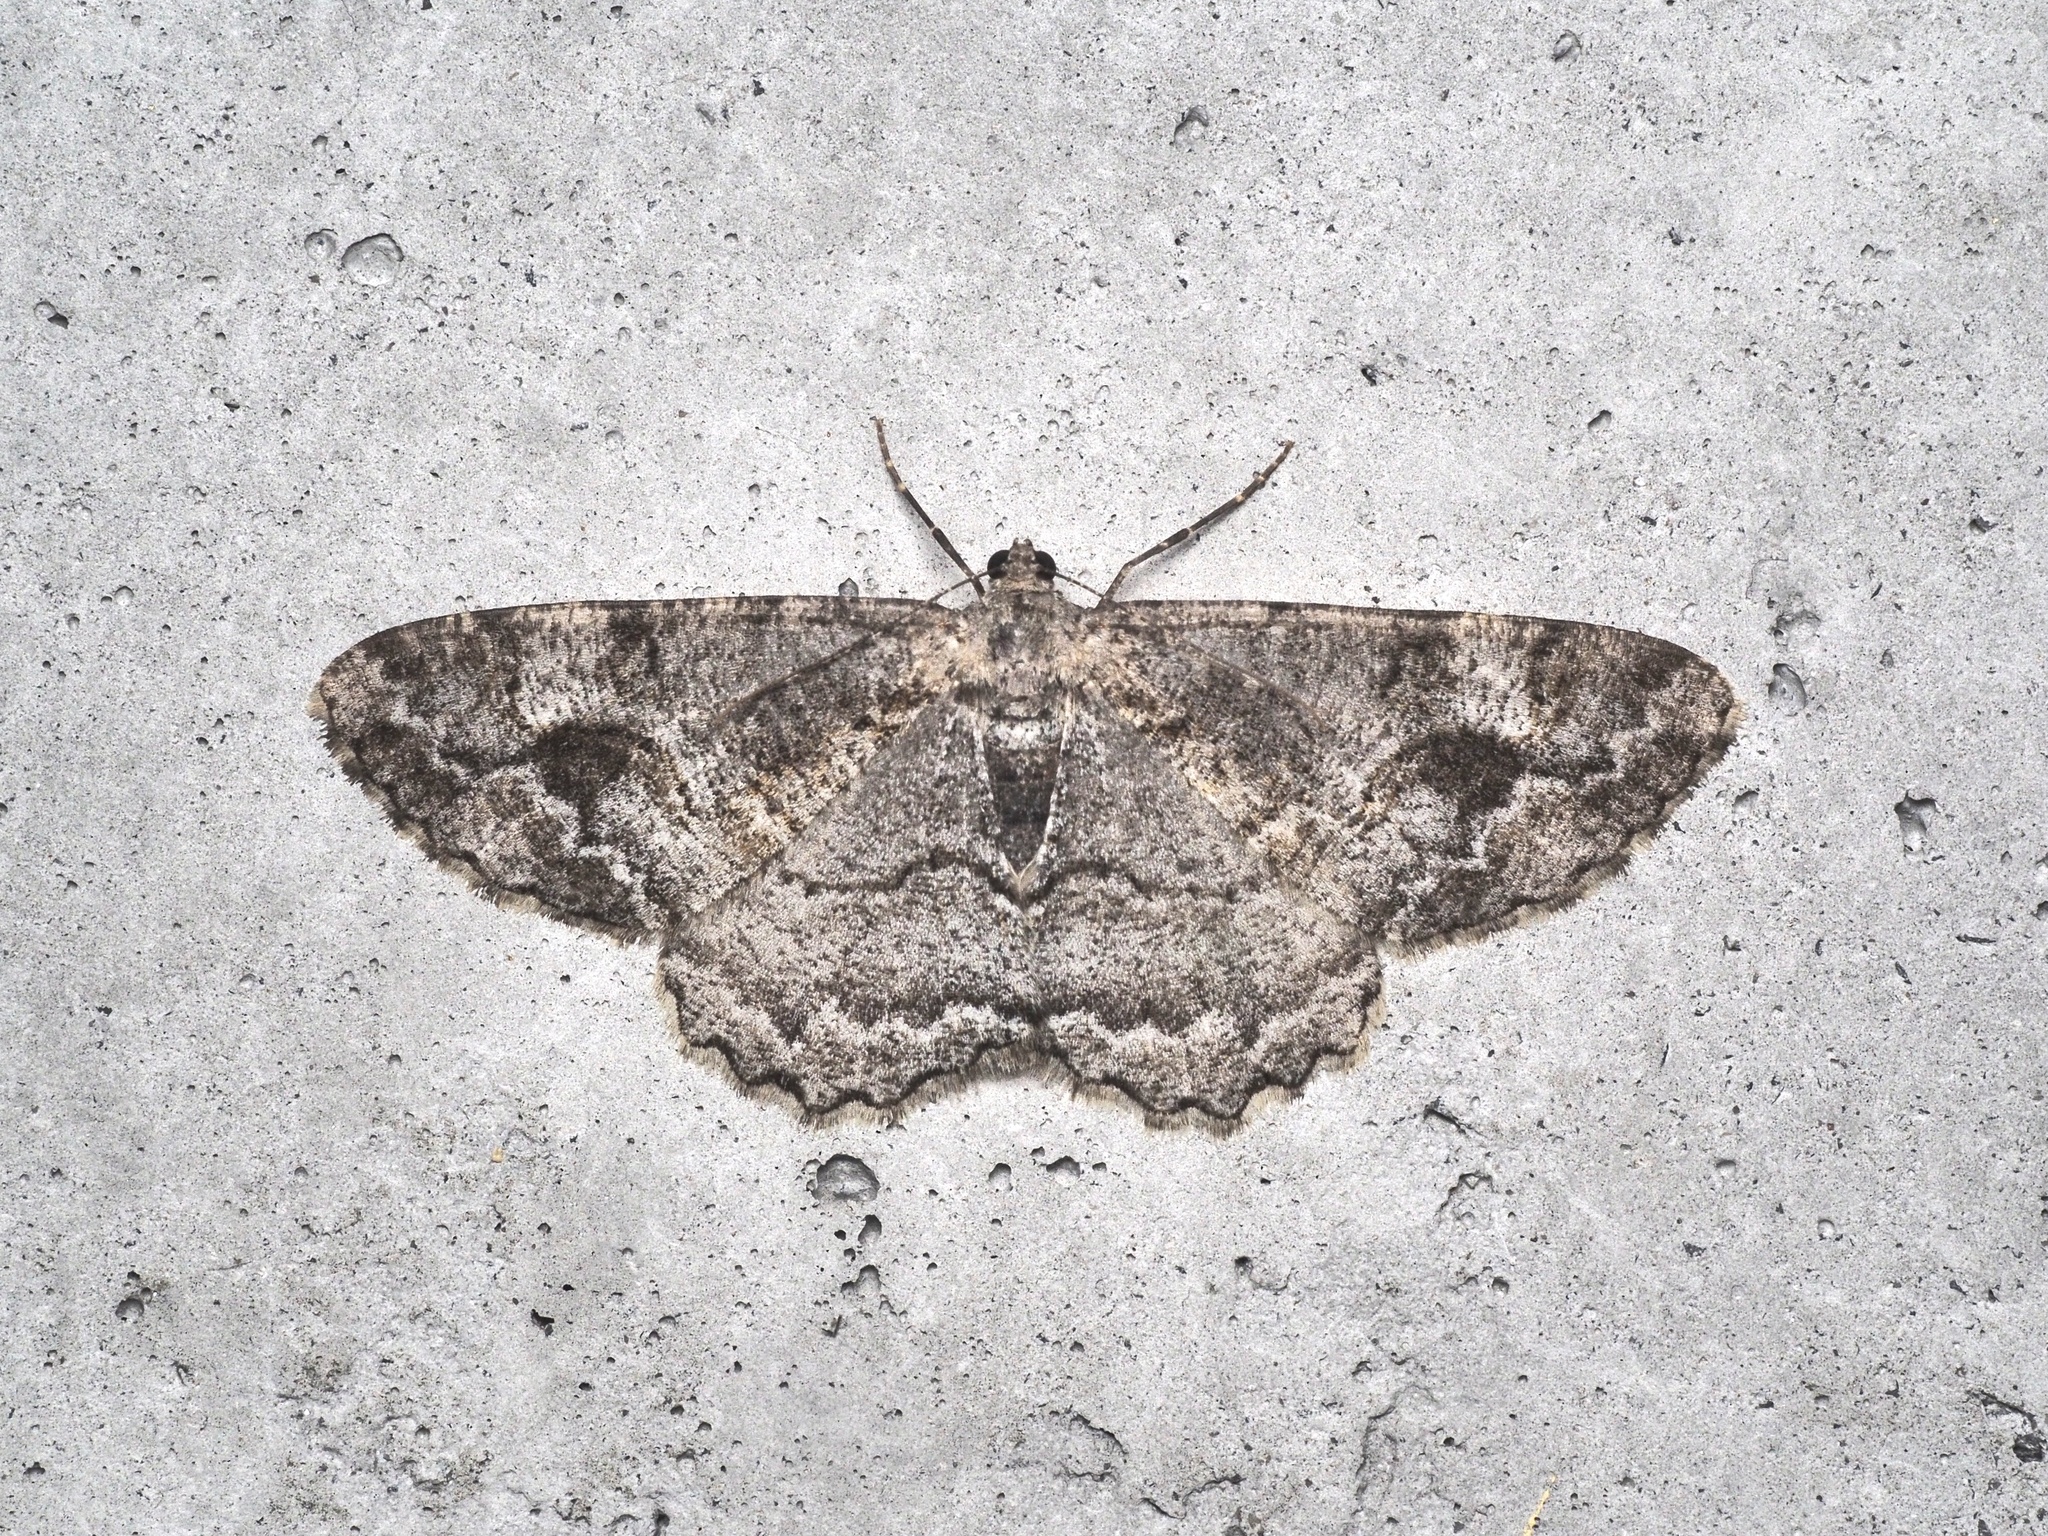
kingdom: Animalia
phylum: Arthropoda
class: Insecta
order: Lepidoptera
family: Geometridae
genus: Alcis
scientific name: Alcis repandata
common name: Mottled beauty
